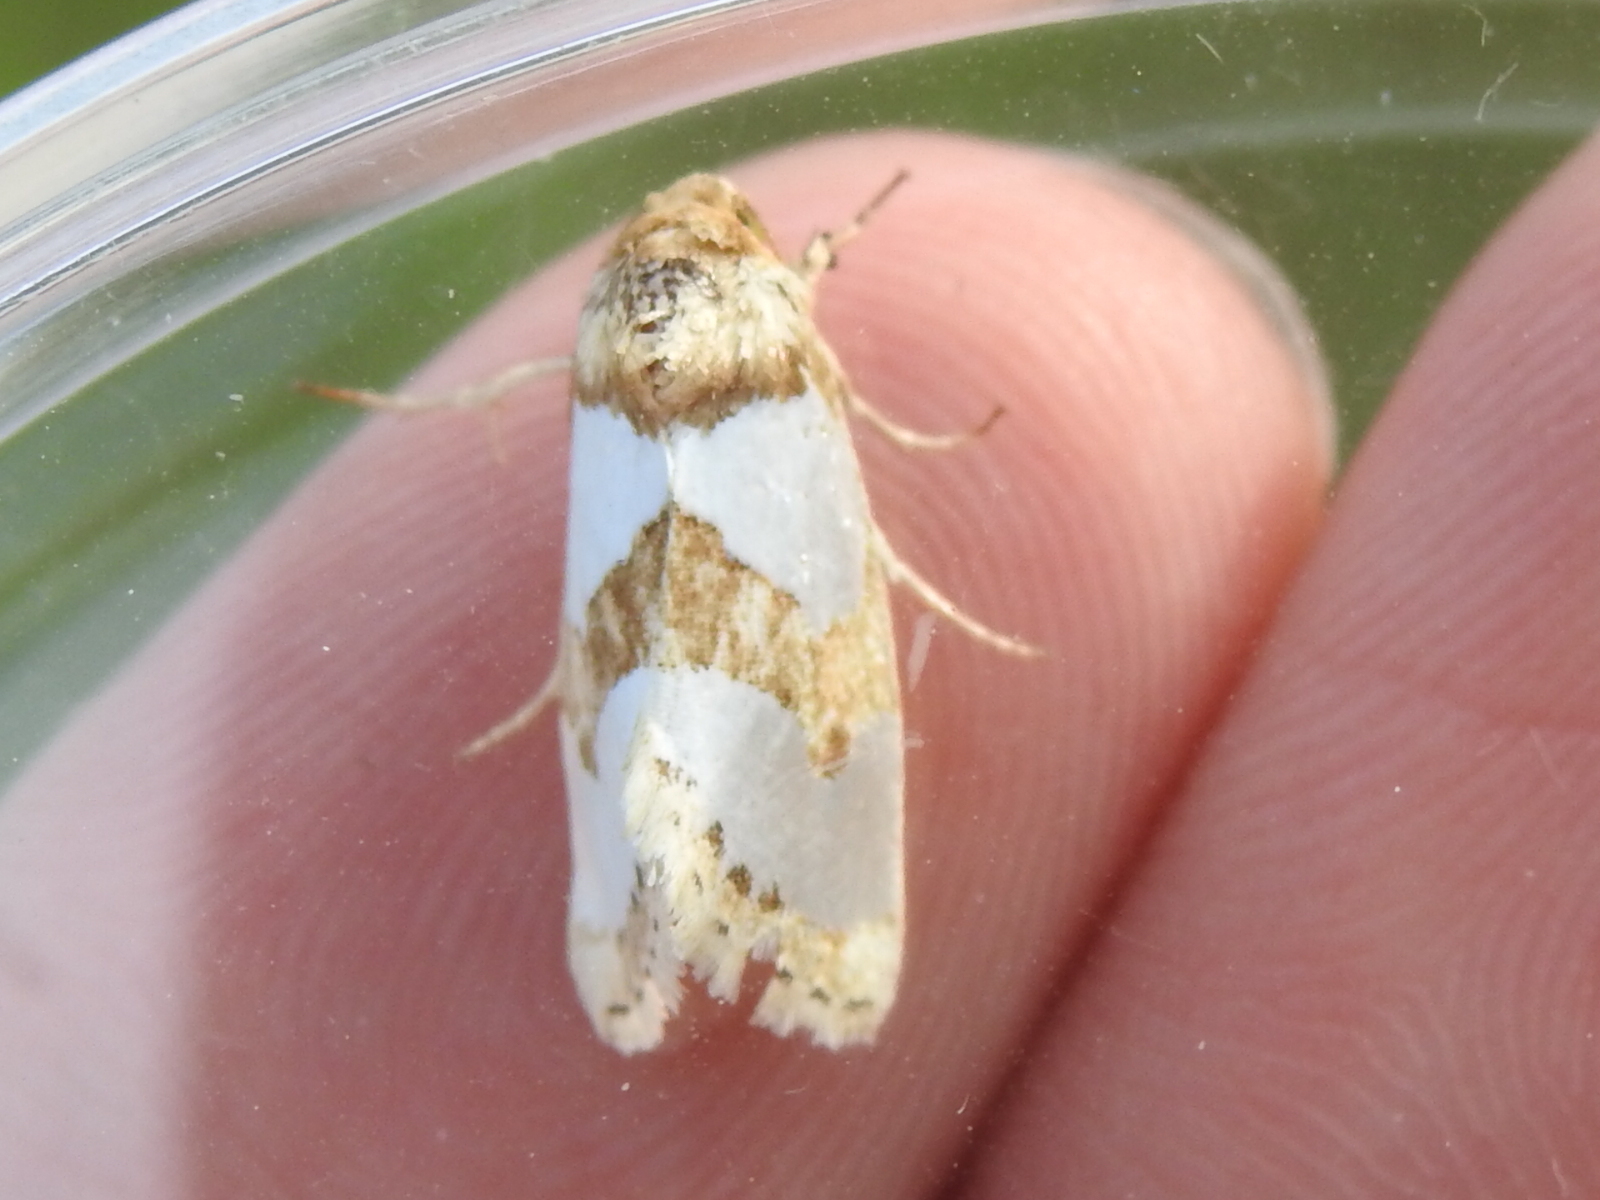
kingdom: Animalia
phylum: Arthropoda
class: Insecta
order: Lepidoptera
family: Noctuidae
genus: Schinia
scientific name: Schinia chrysellus
